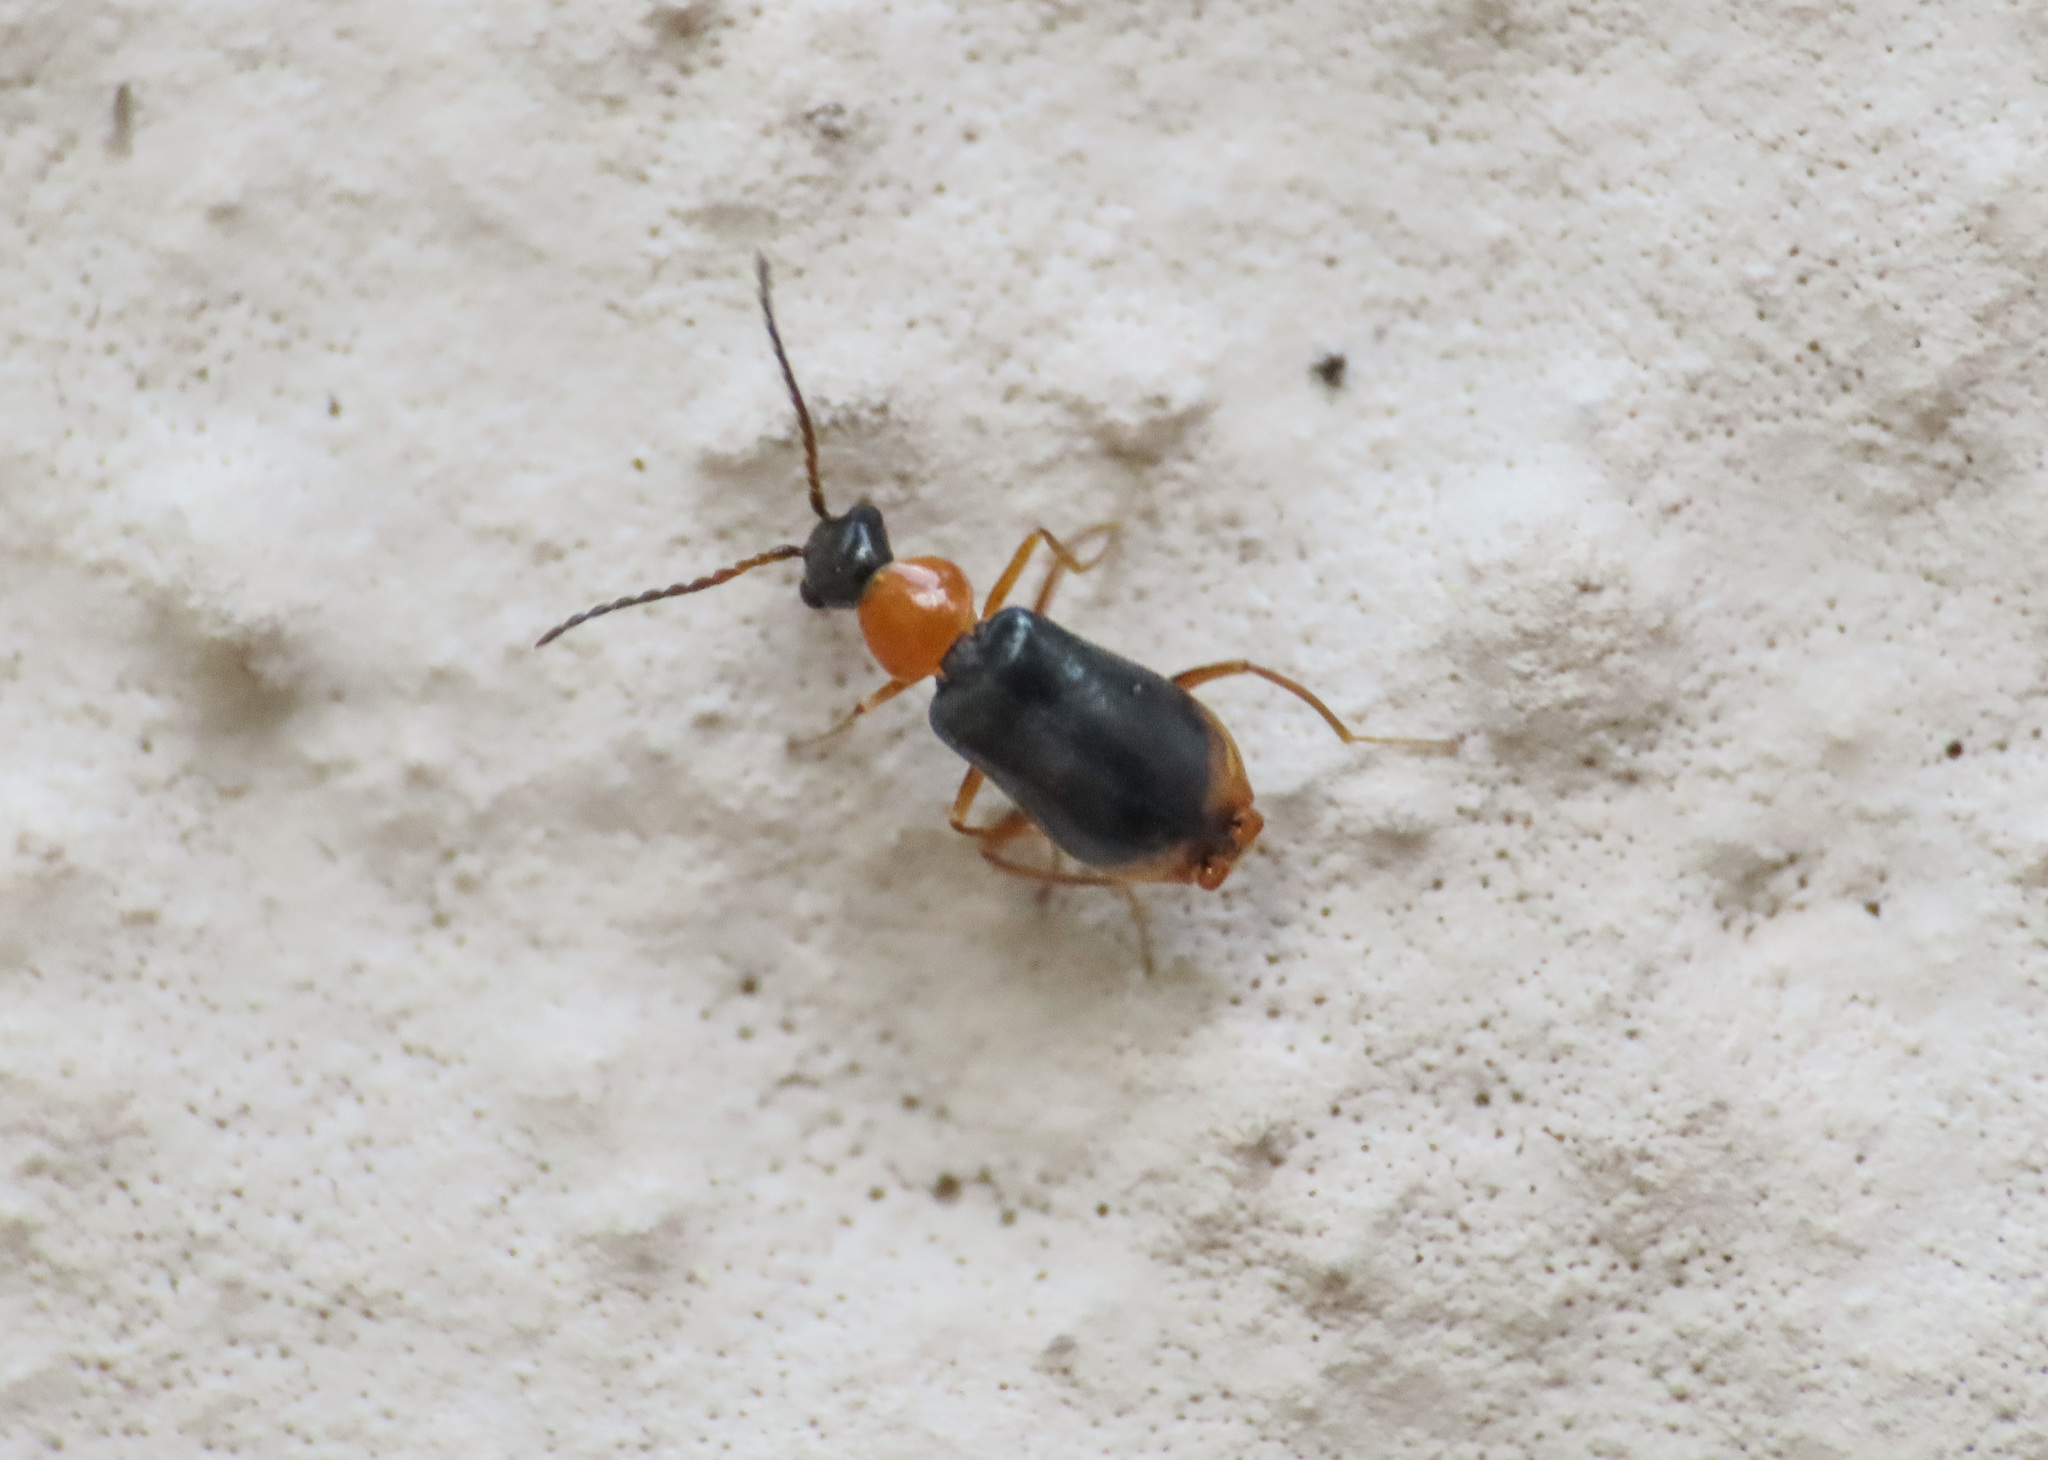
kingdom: Animalia
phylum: Arthropoda
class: Insecta
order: Coleoptera
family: Melyridae
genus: Hypebaeus
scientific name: Hypebaeus flavicollis
